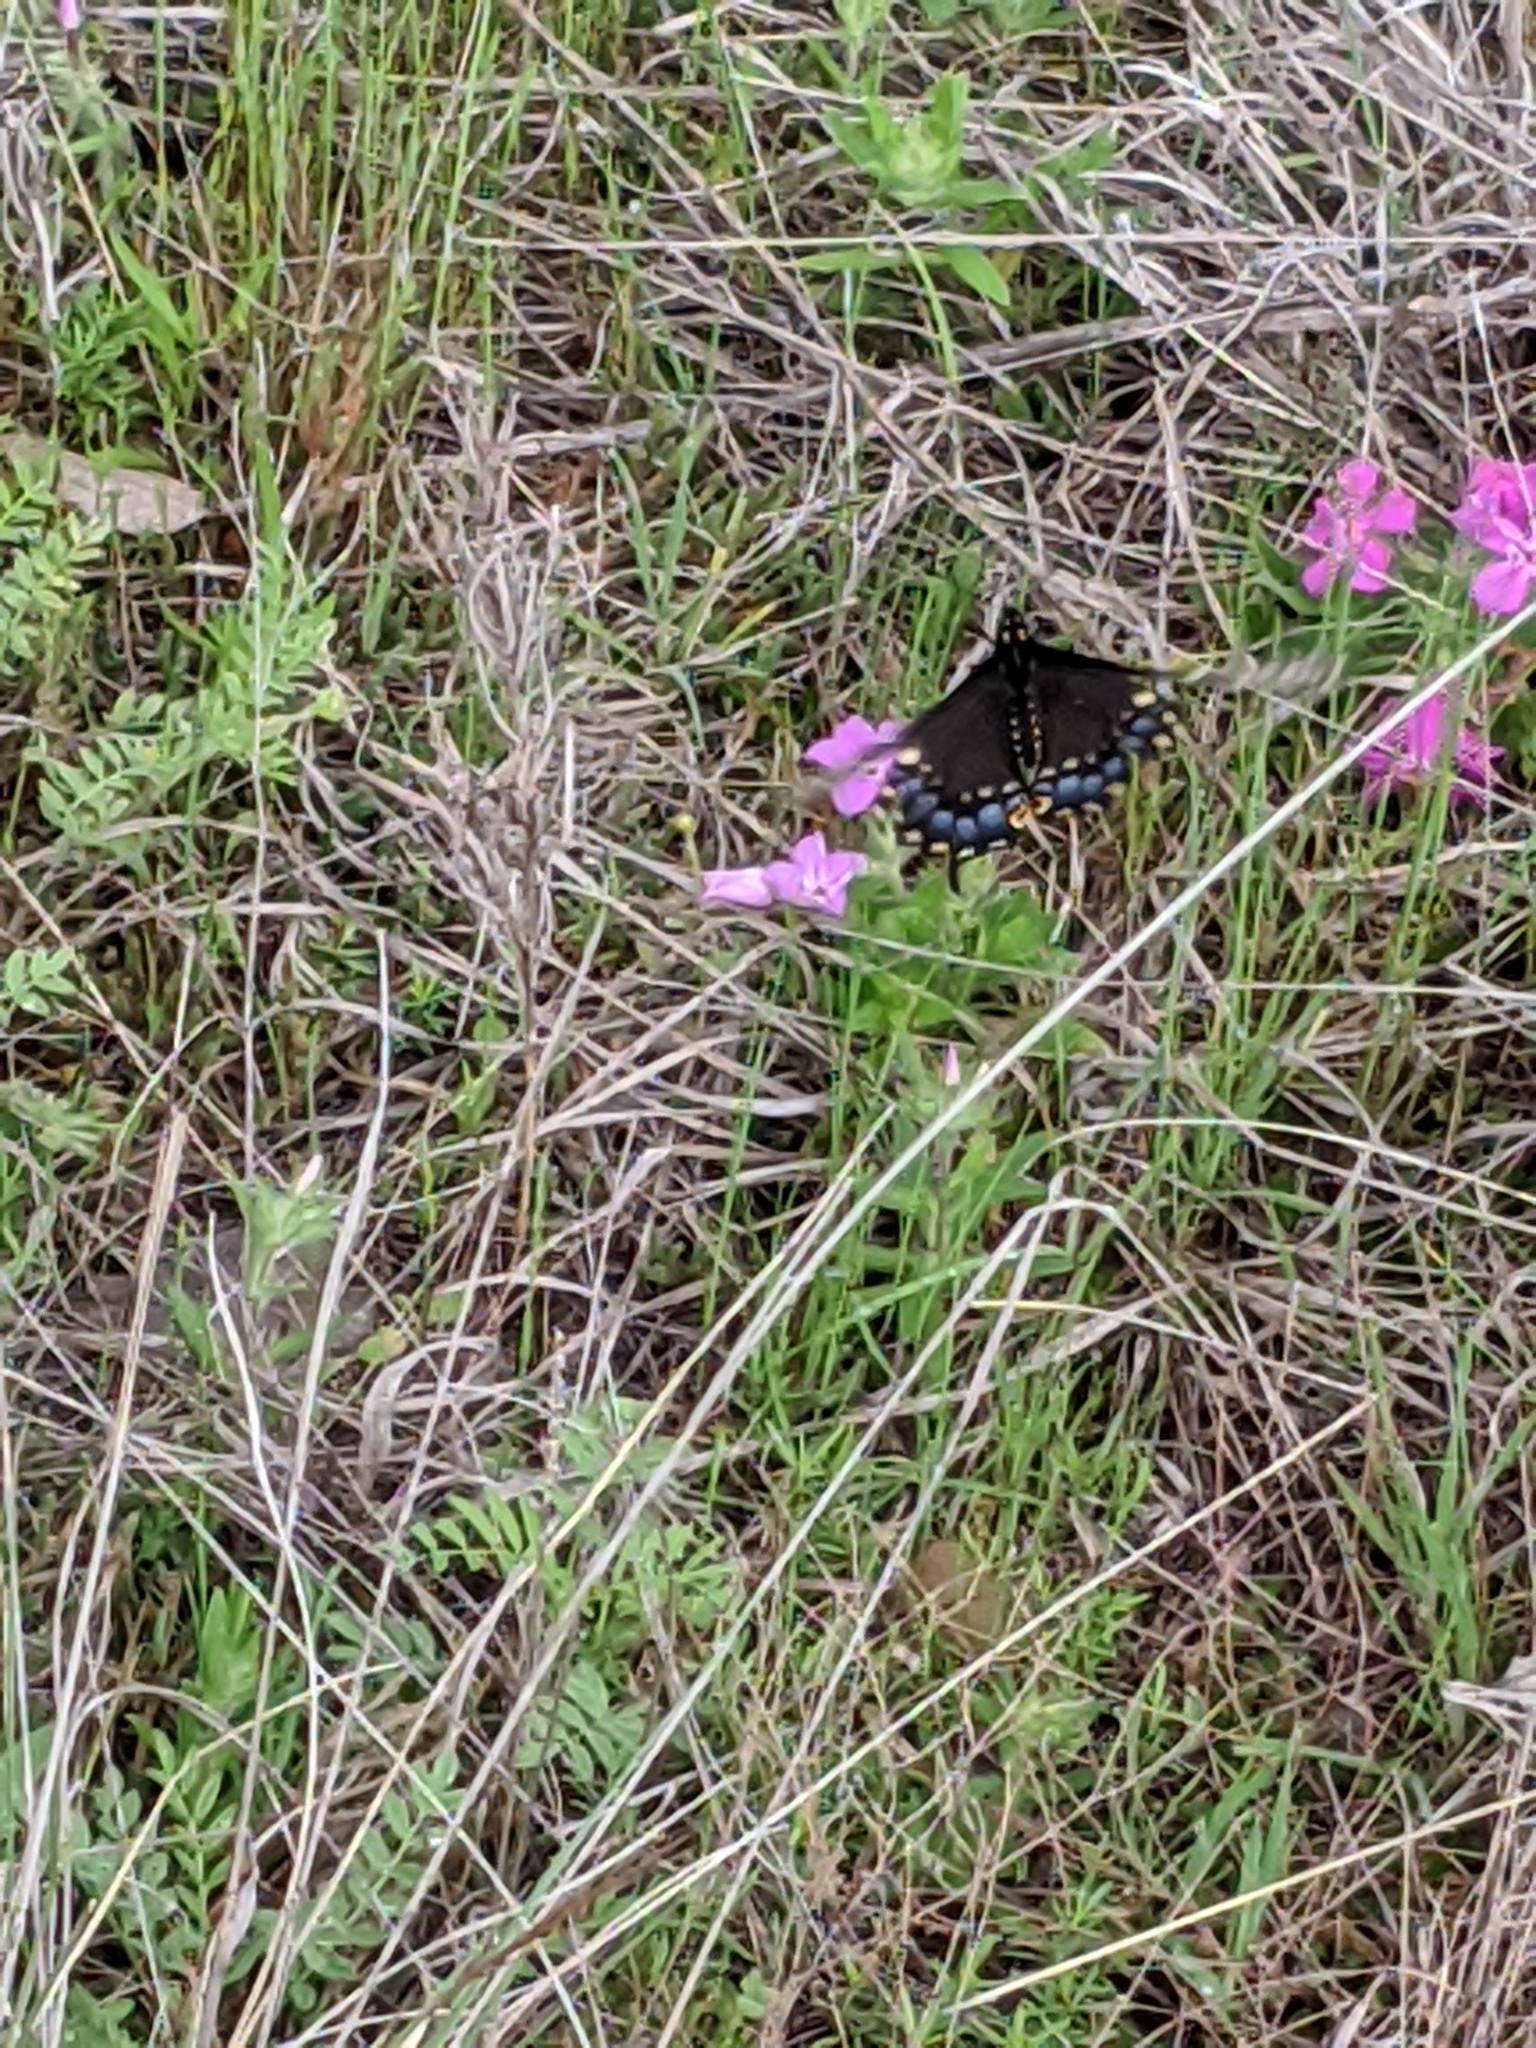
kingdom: Animalia
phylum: Arthropoda
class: Insecta
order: Lepidoptera
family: Papilionidae
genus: Papilio
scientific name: Papilio polyxenes
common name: Black swallowtail
